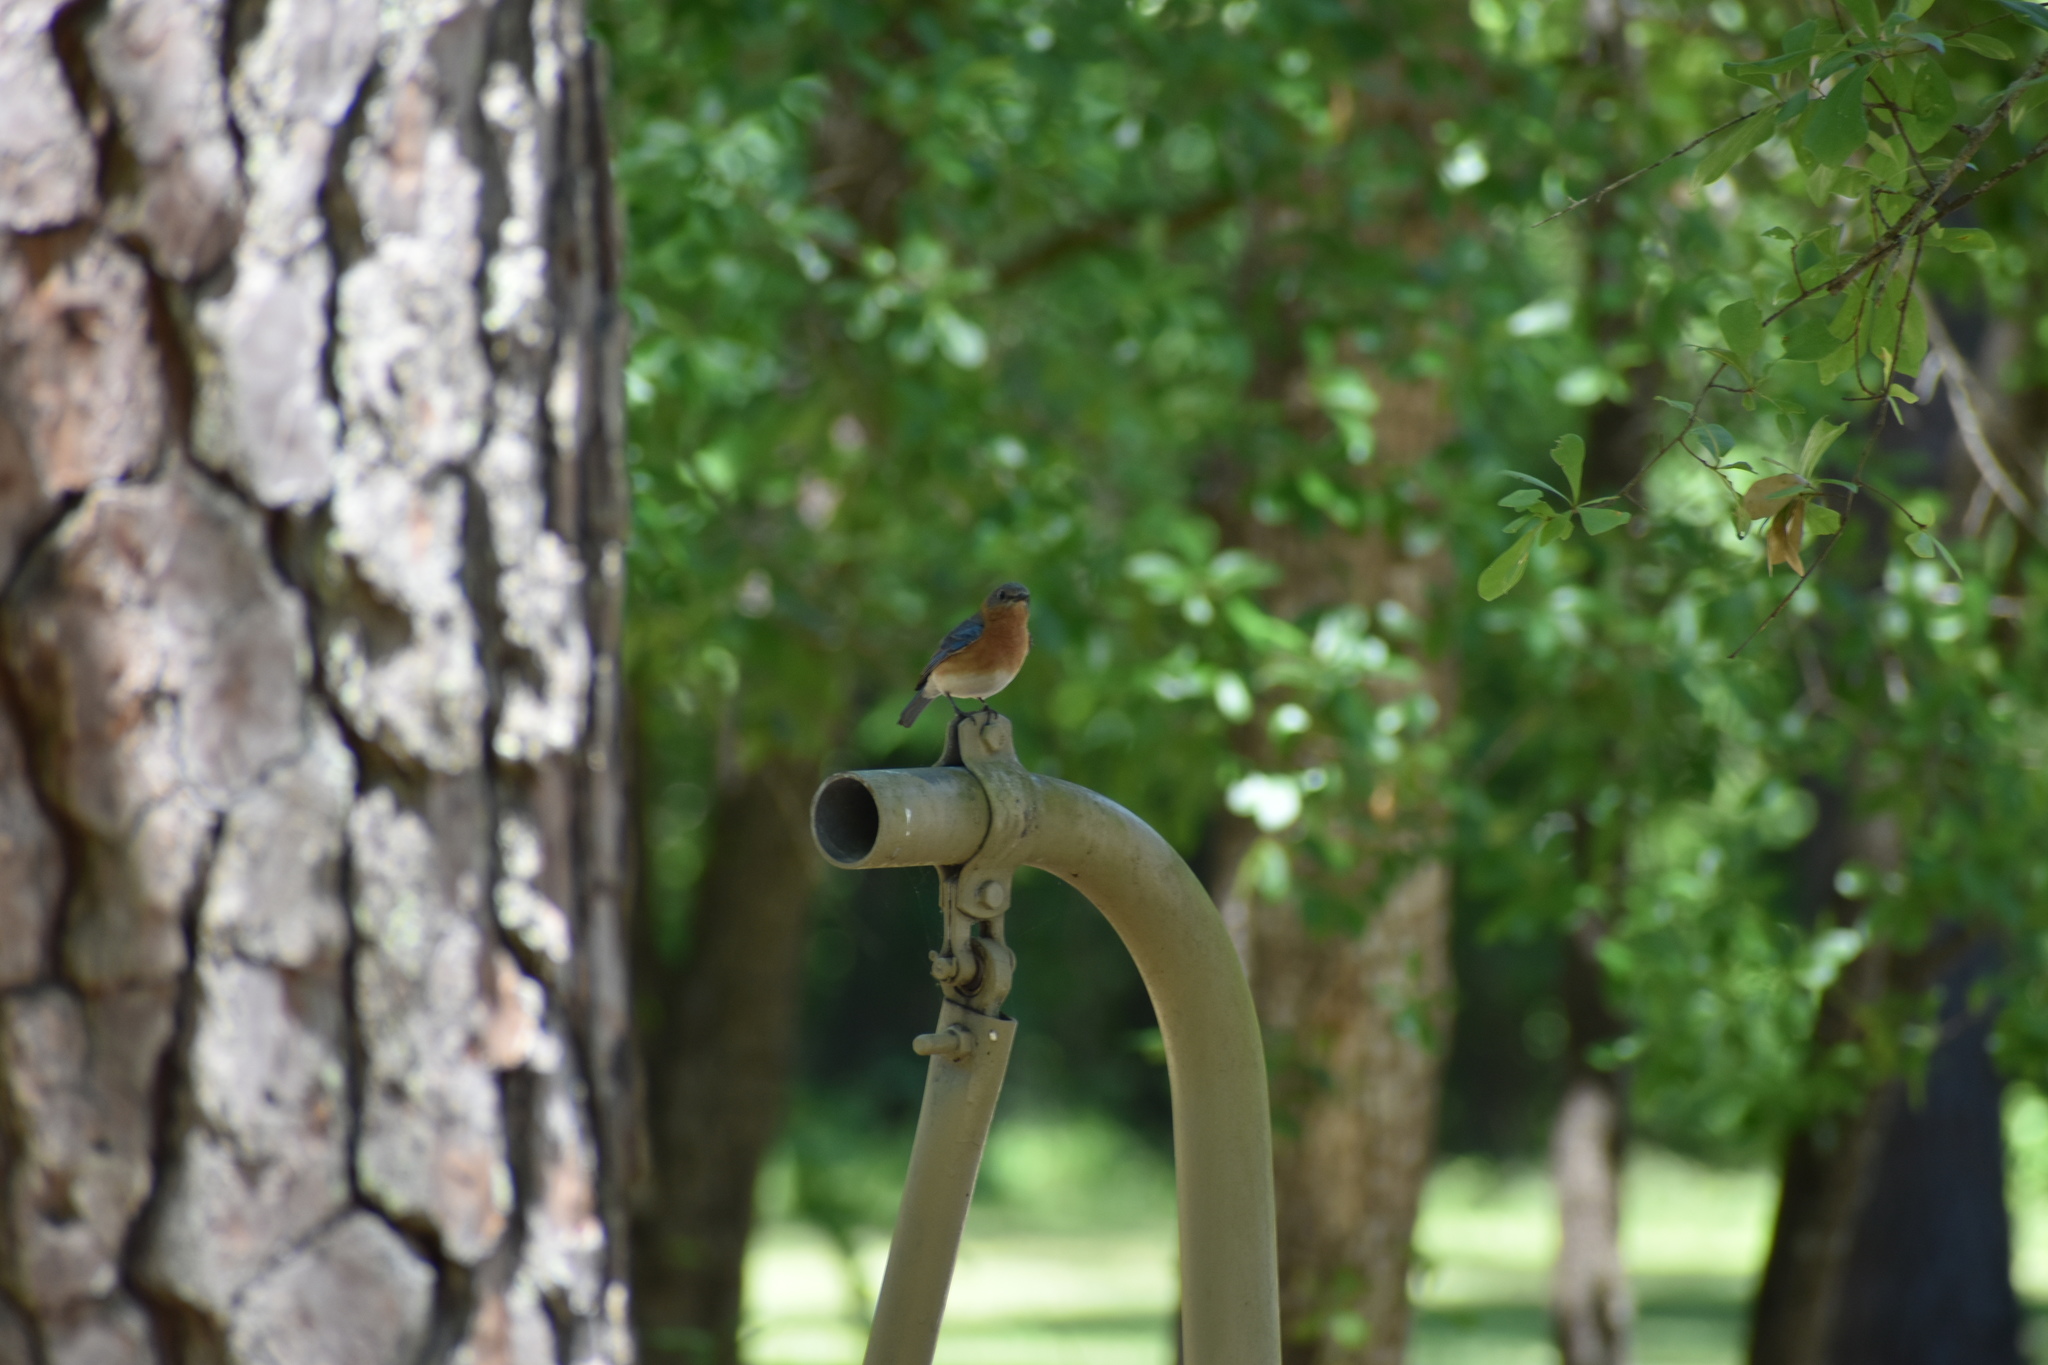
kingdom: Animalia
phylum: Chordata
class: Aves
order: Passeriformes
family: Turdidae
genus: Sialia
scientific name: Sialia sialis
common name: Eastern bluebird
